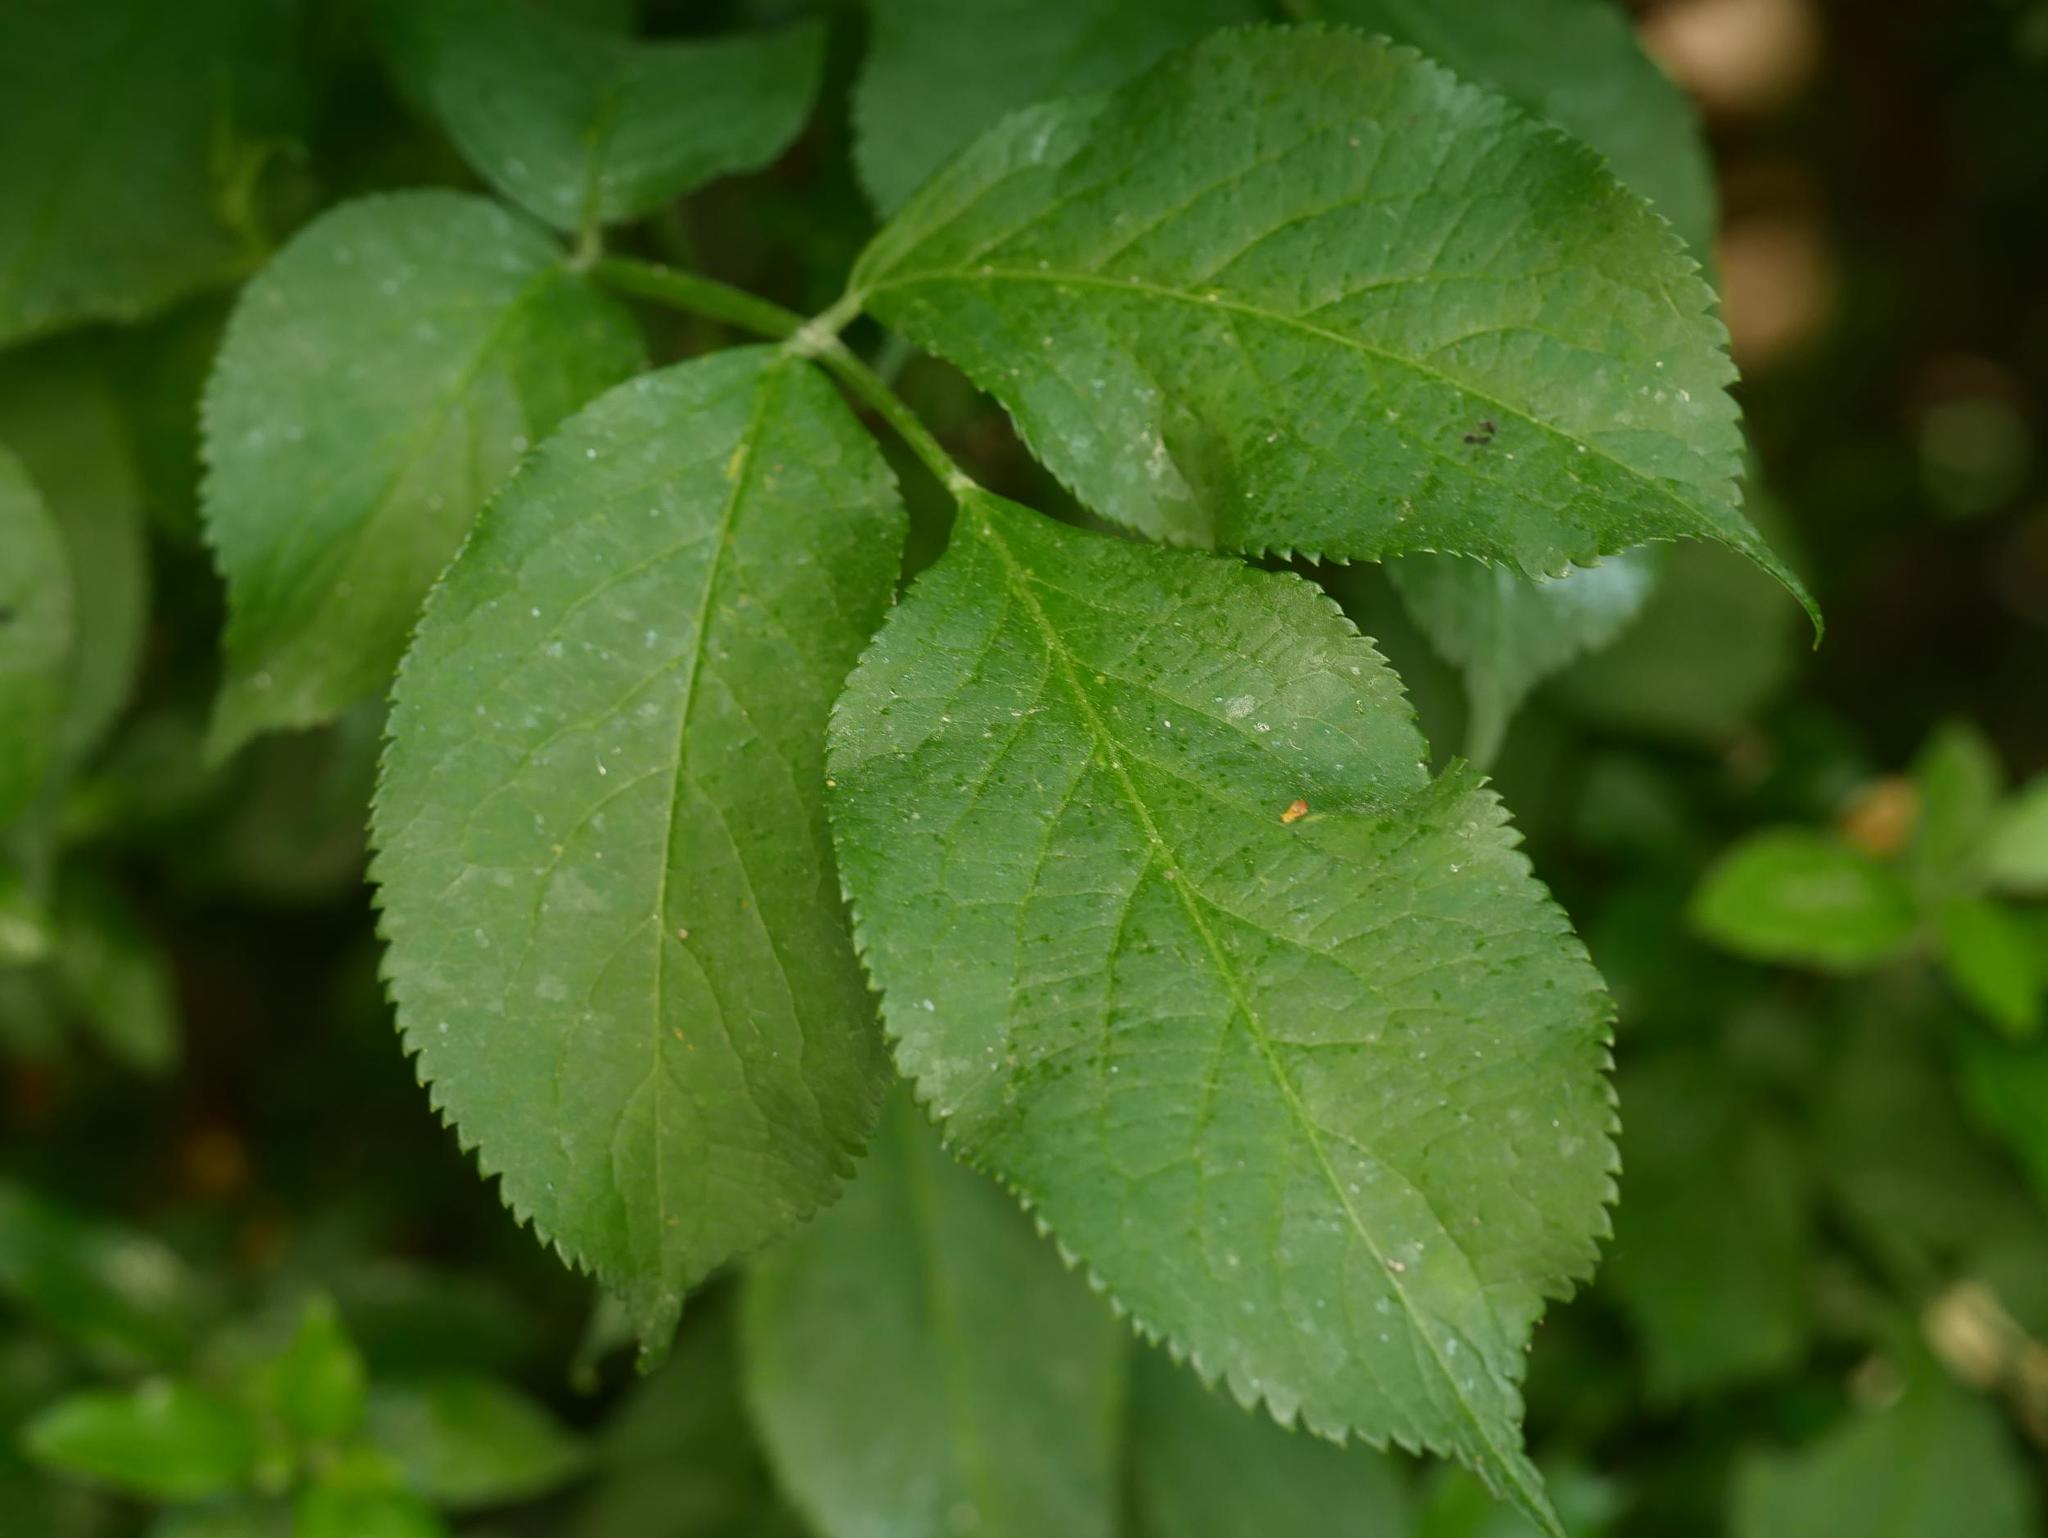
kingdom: Plantae
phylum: Tracheophyta
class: Magnoliopsida
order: Dipsacales
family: Viburnaceae
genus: Sambucus
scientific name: Sambucus nigra
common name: Elder
